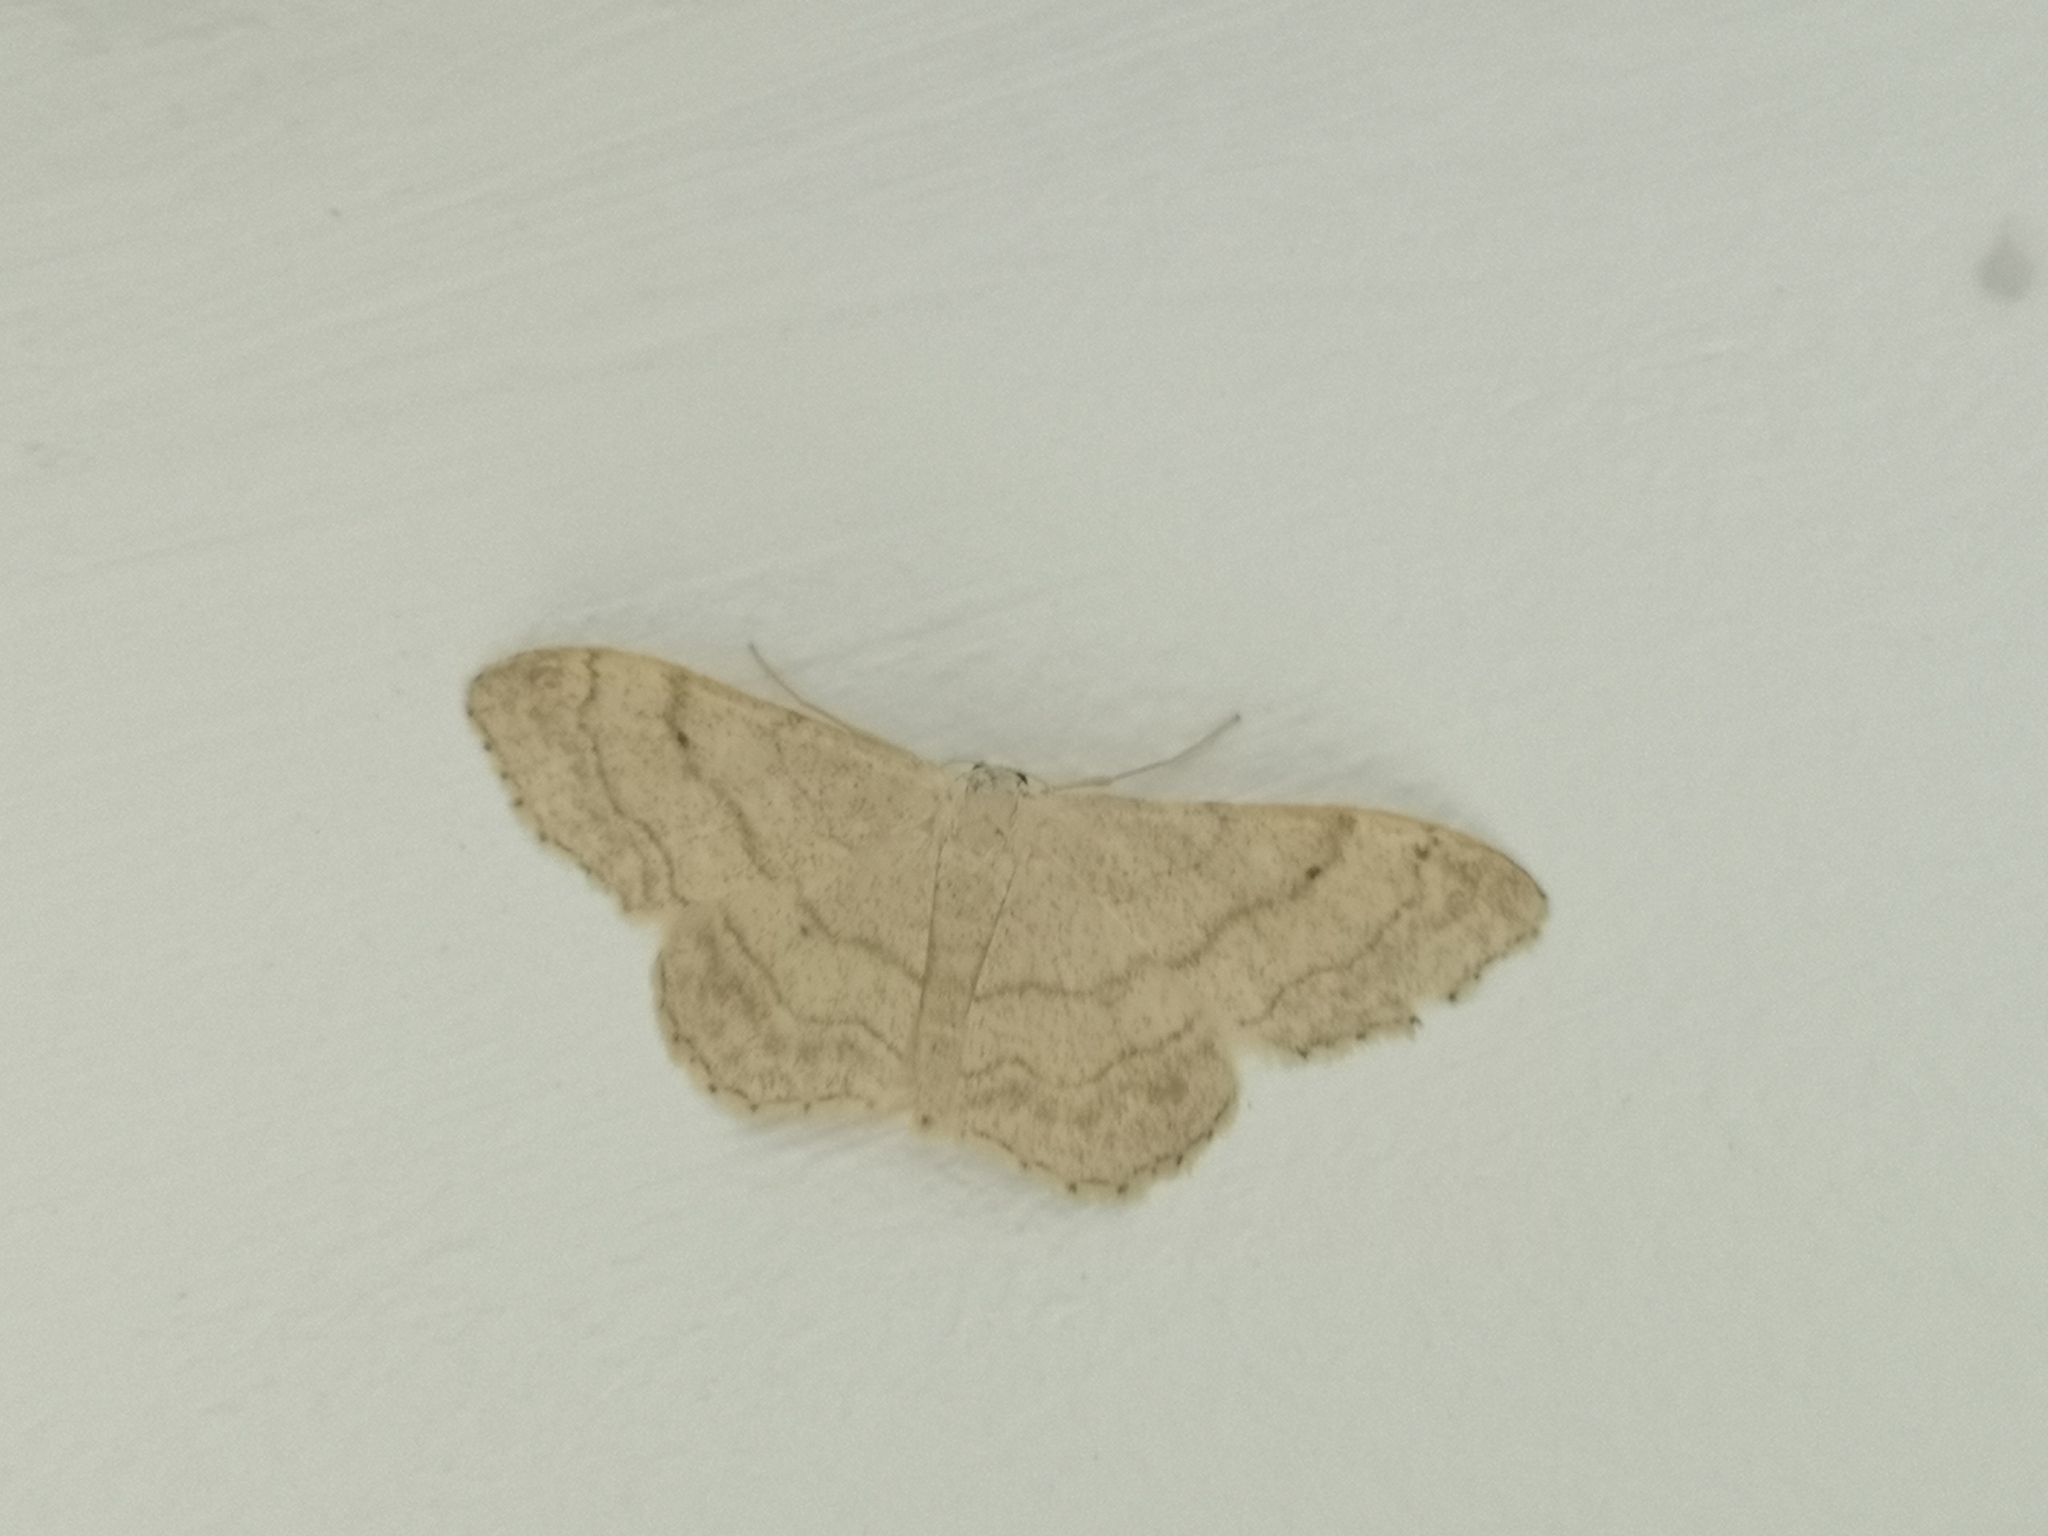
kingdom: Animalia
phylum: Arthropoda
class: Insecta
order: Lepidoptera
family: Geometridae
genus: Idaea
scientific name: Idaea aversata
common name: Riband wave
